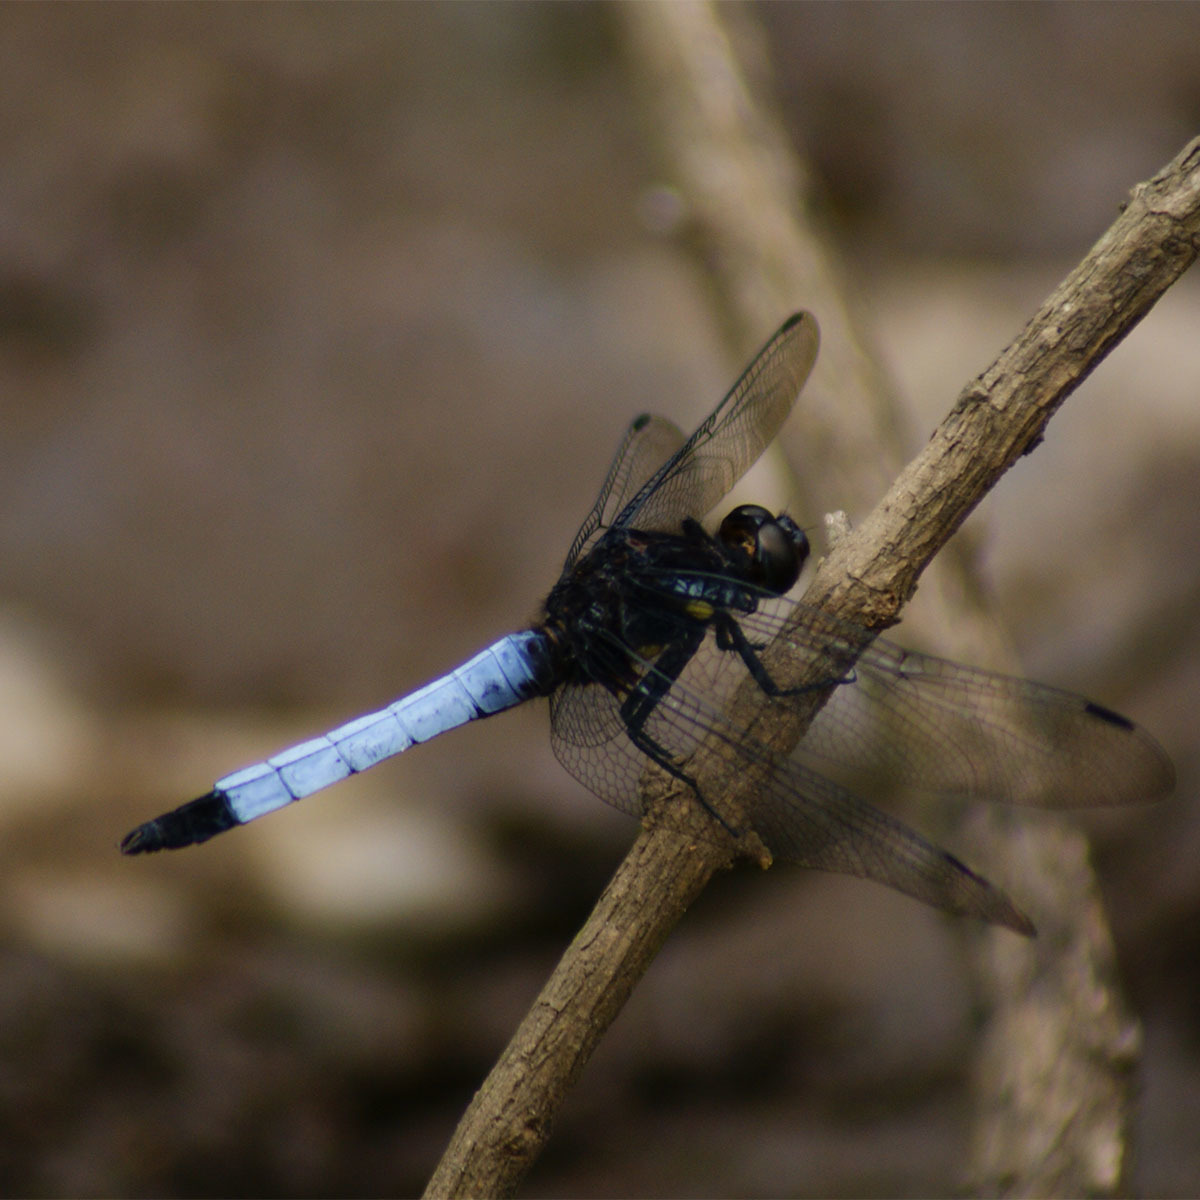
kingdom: Animalia
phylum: Arthropoda
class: Insecta
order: Odonata
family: Libellulidae
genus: Orthetrum
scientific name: Orthetrum triangulare
